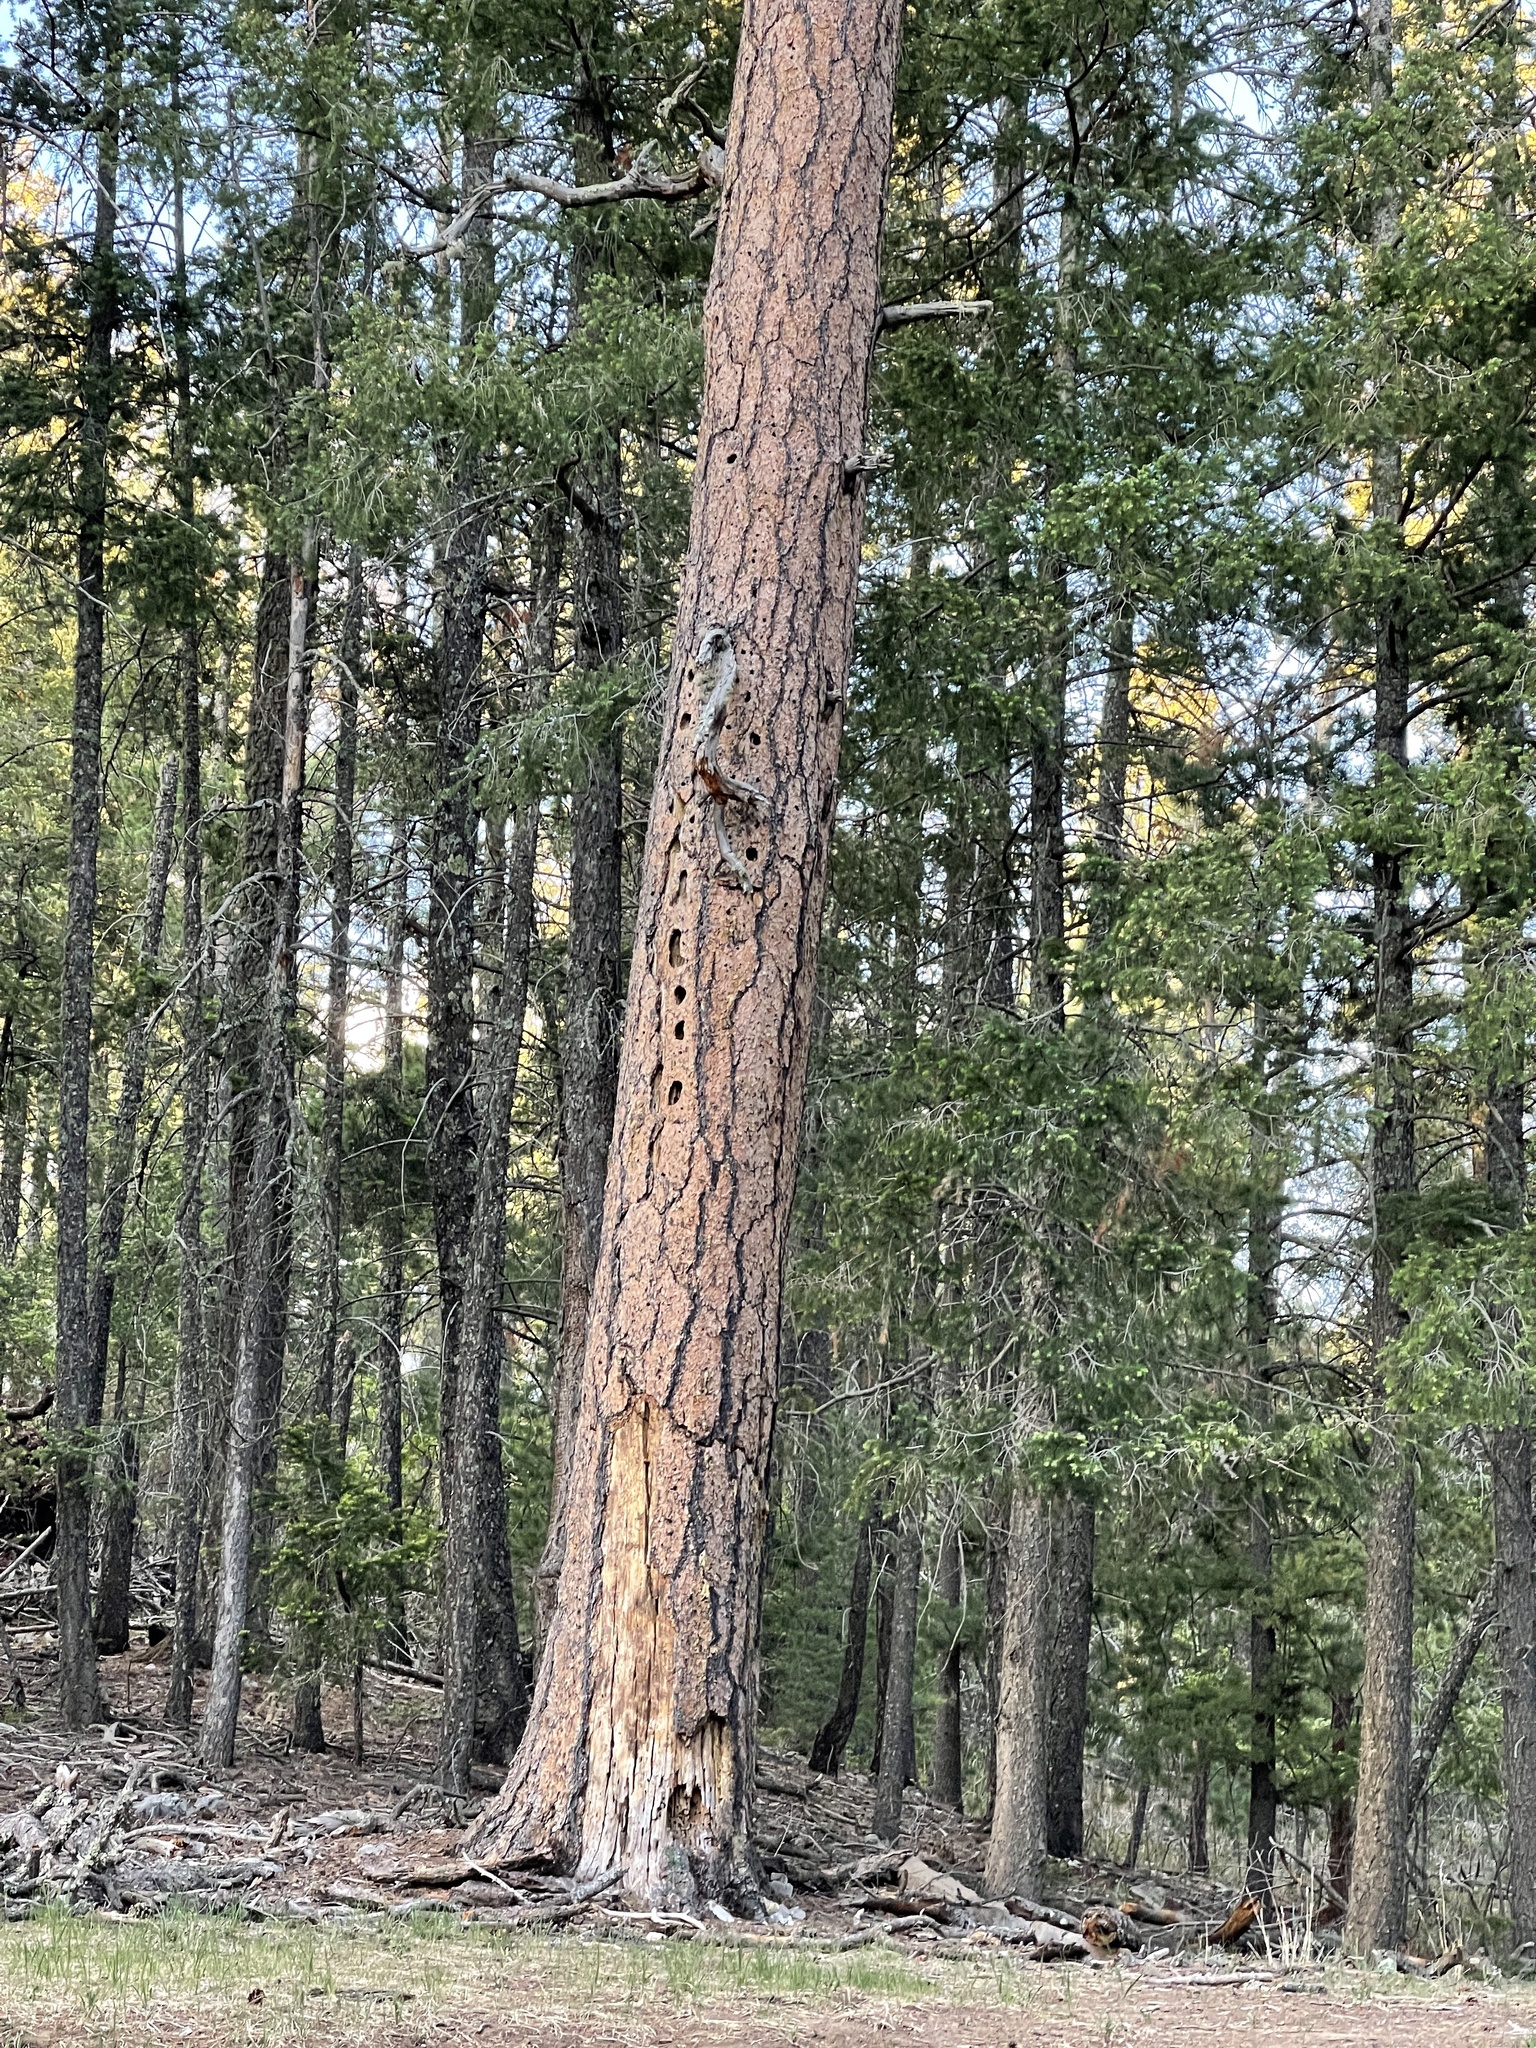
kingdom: Plantae
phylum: Tracheophyta
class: Pinopsida
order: Pinales
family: Pinaceae
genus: Pinus
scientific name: Pinus ponderosa
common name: Western yellow-pine
